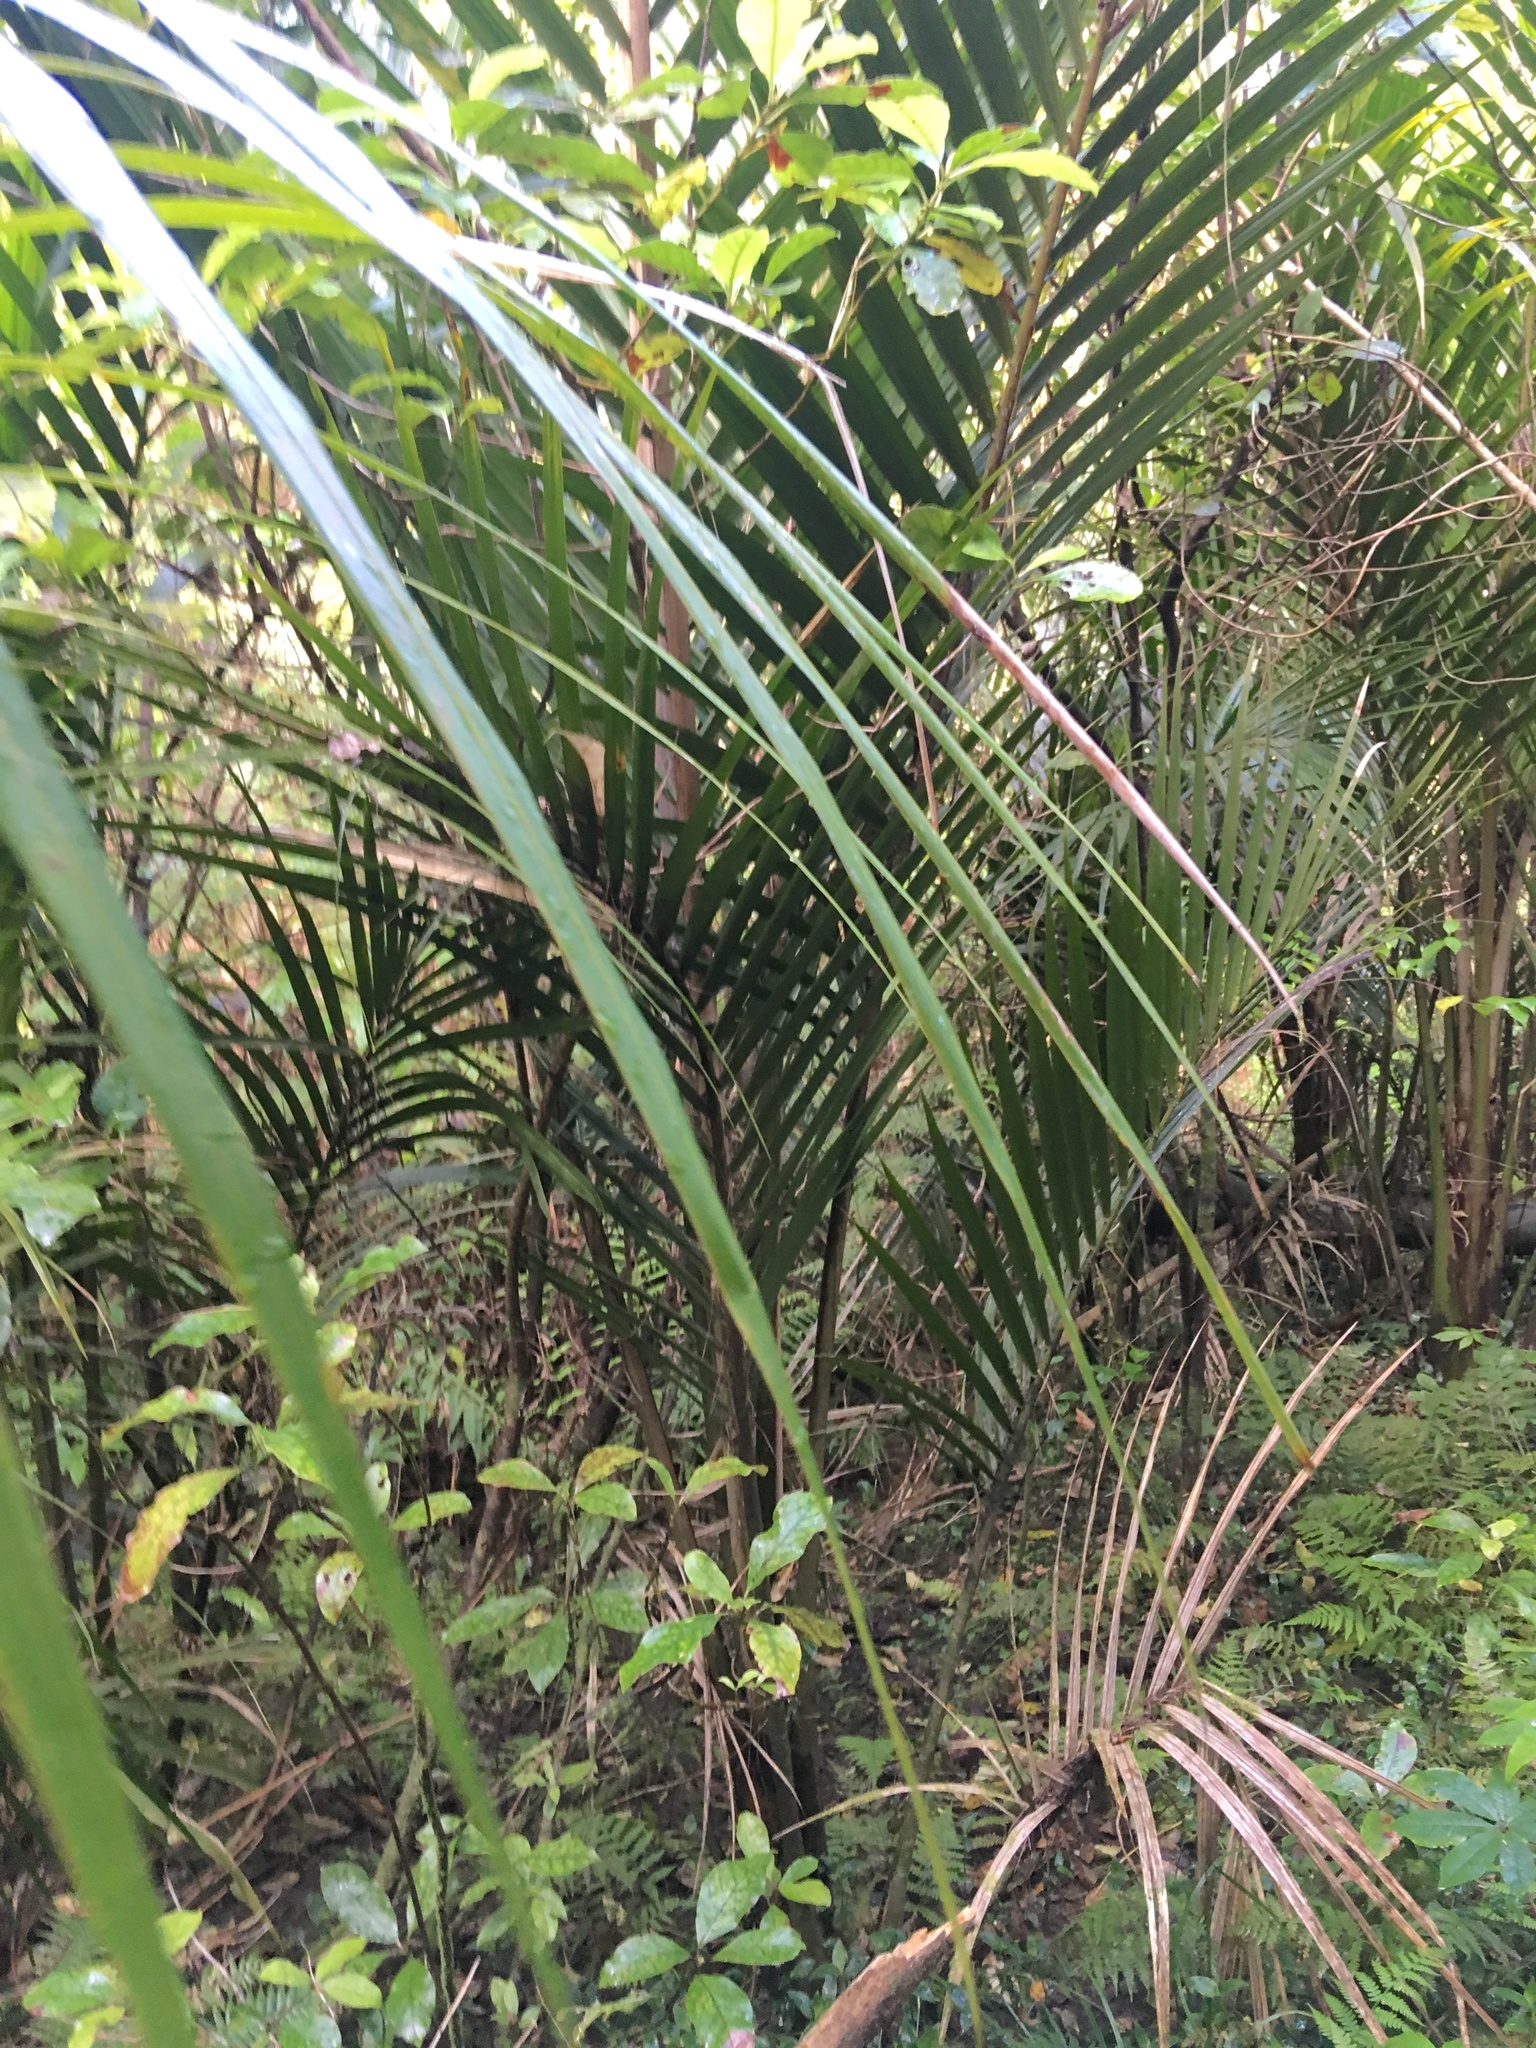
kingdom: Plantae
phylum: Tracheophyta
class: Liliopsida
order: Arecales
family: Arecaceae
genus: Rhopalostylis
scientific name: Rhopalostylis sapida
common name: Feather-duster palm
